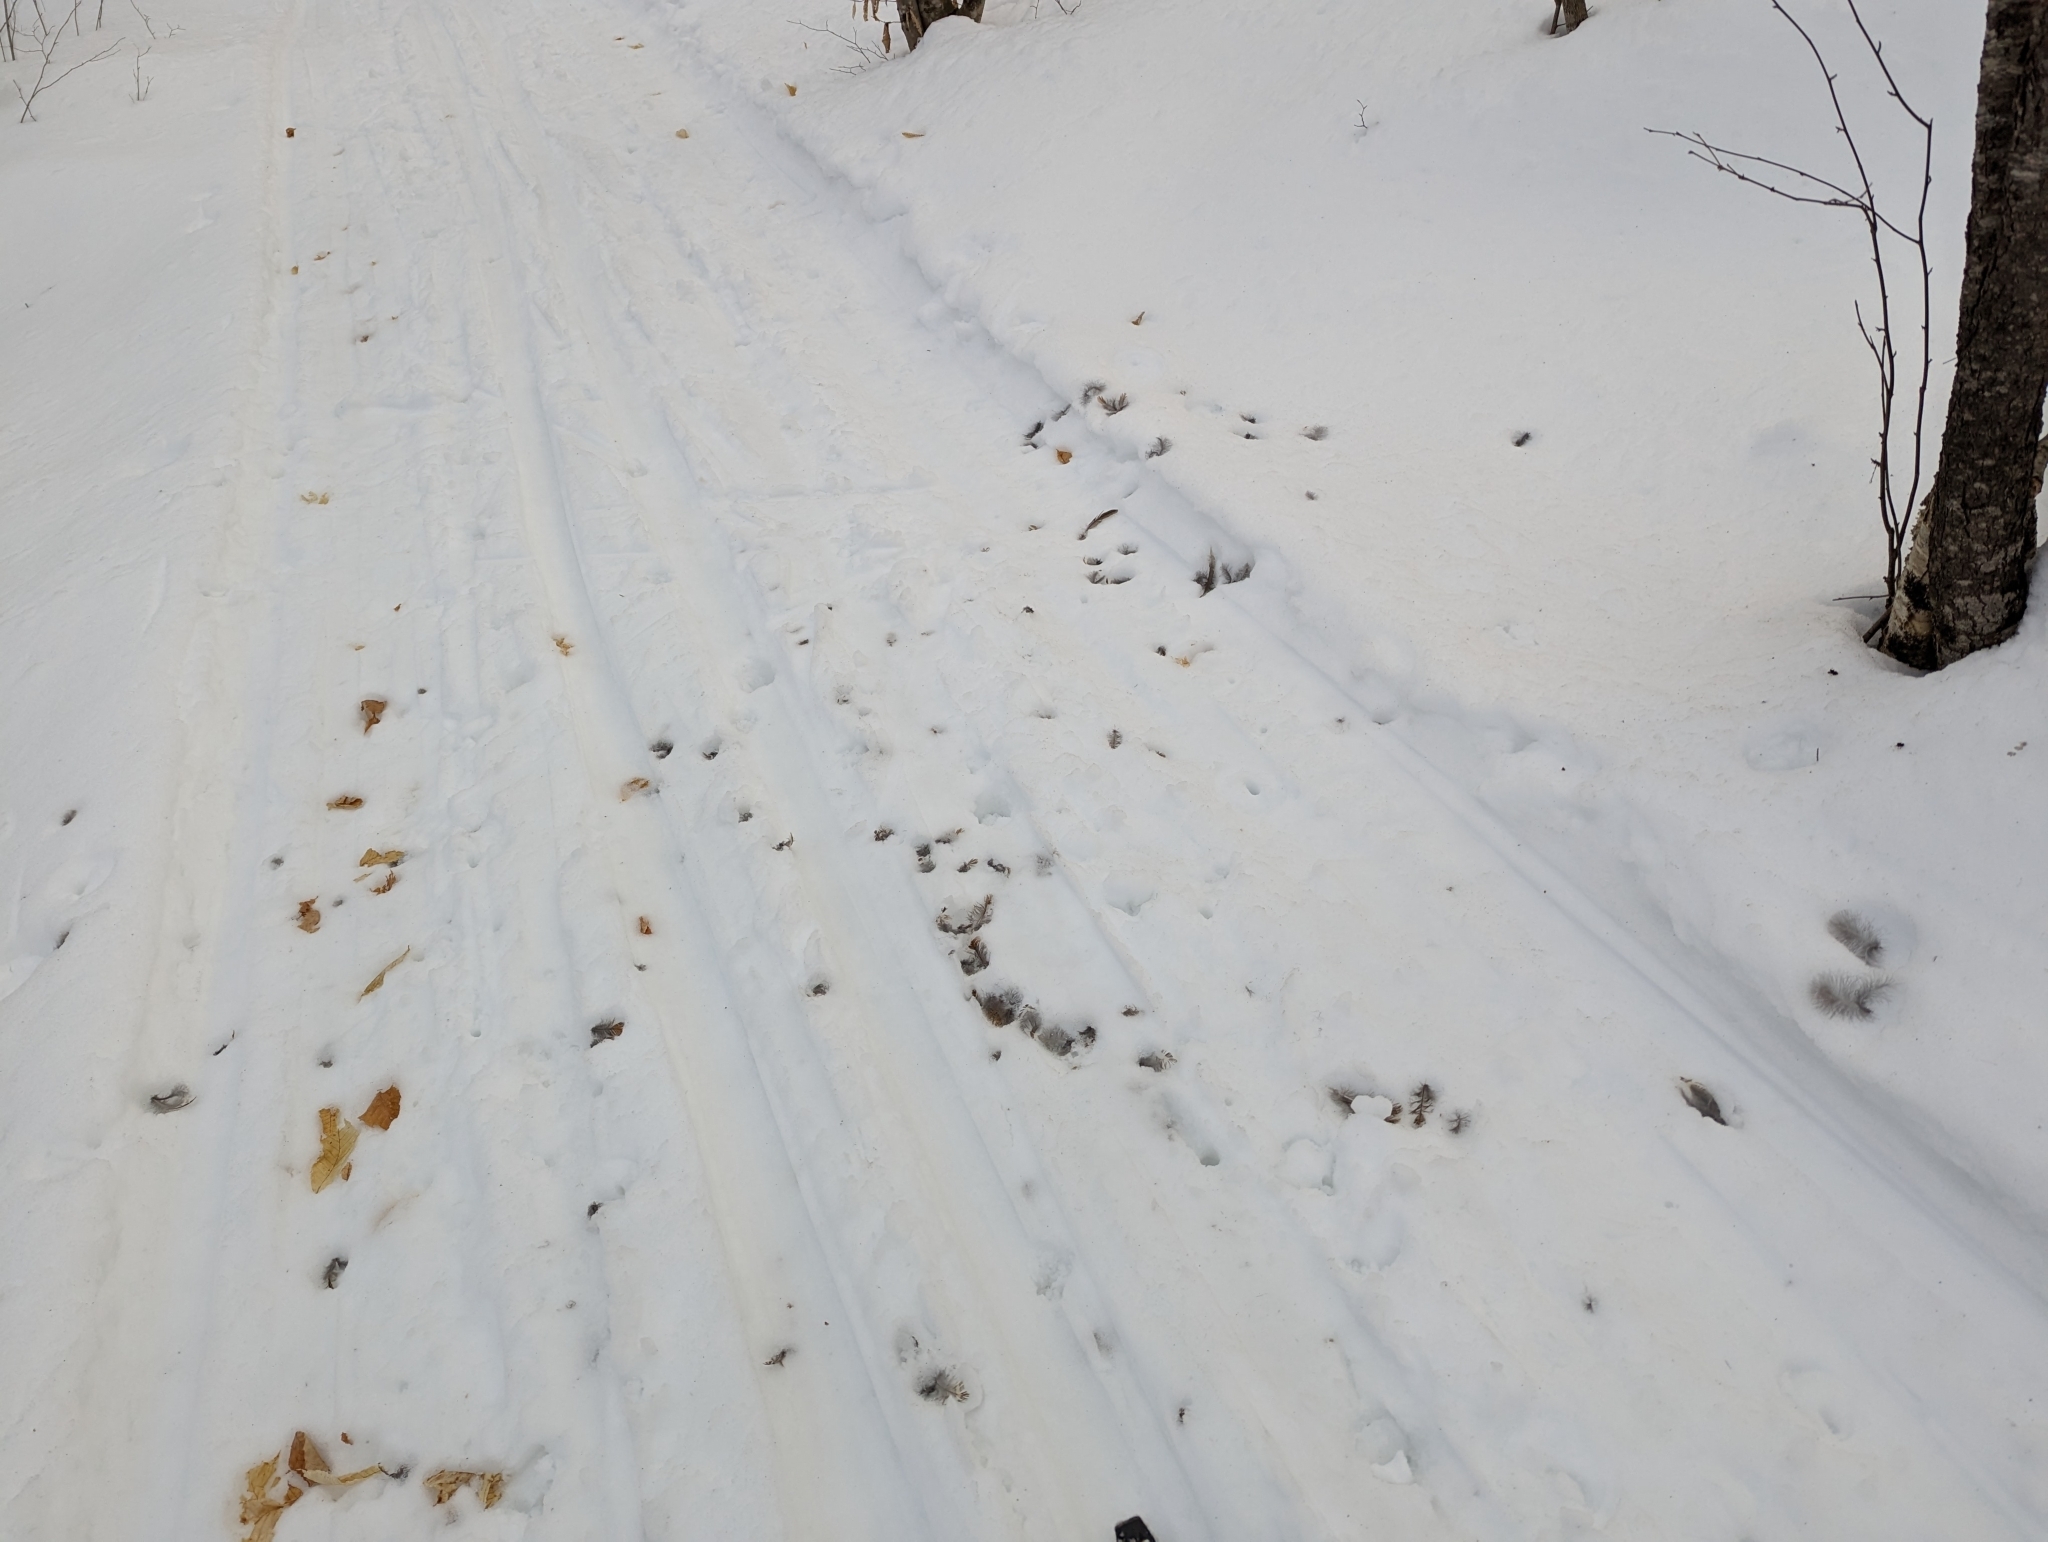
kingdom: Animalia
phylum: Chordata
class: Aves
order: Galliformes
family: Phasianidae
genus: Bonasa
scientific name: Bonasa umbellus
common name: Ruffed grouse
